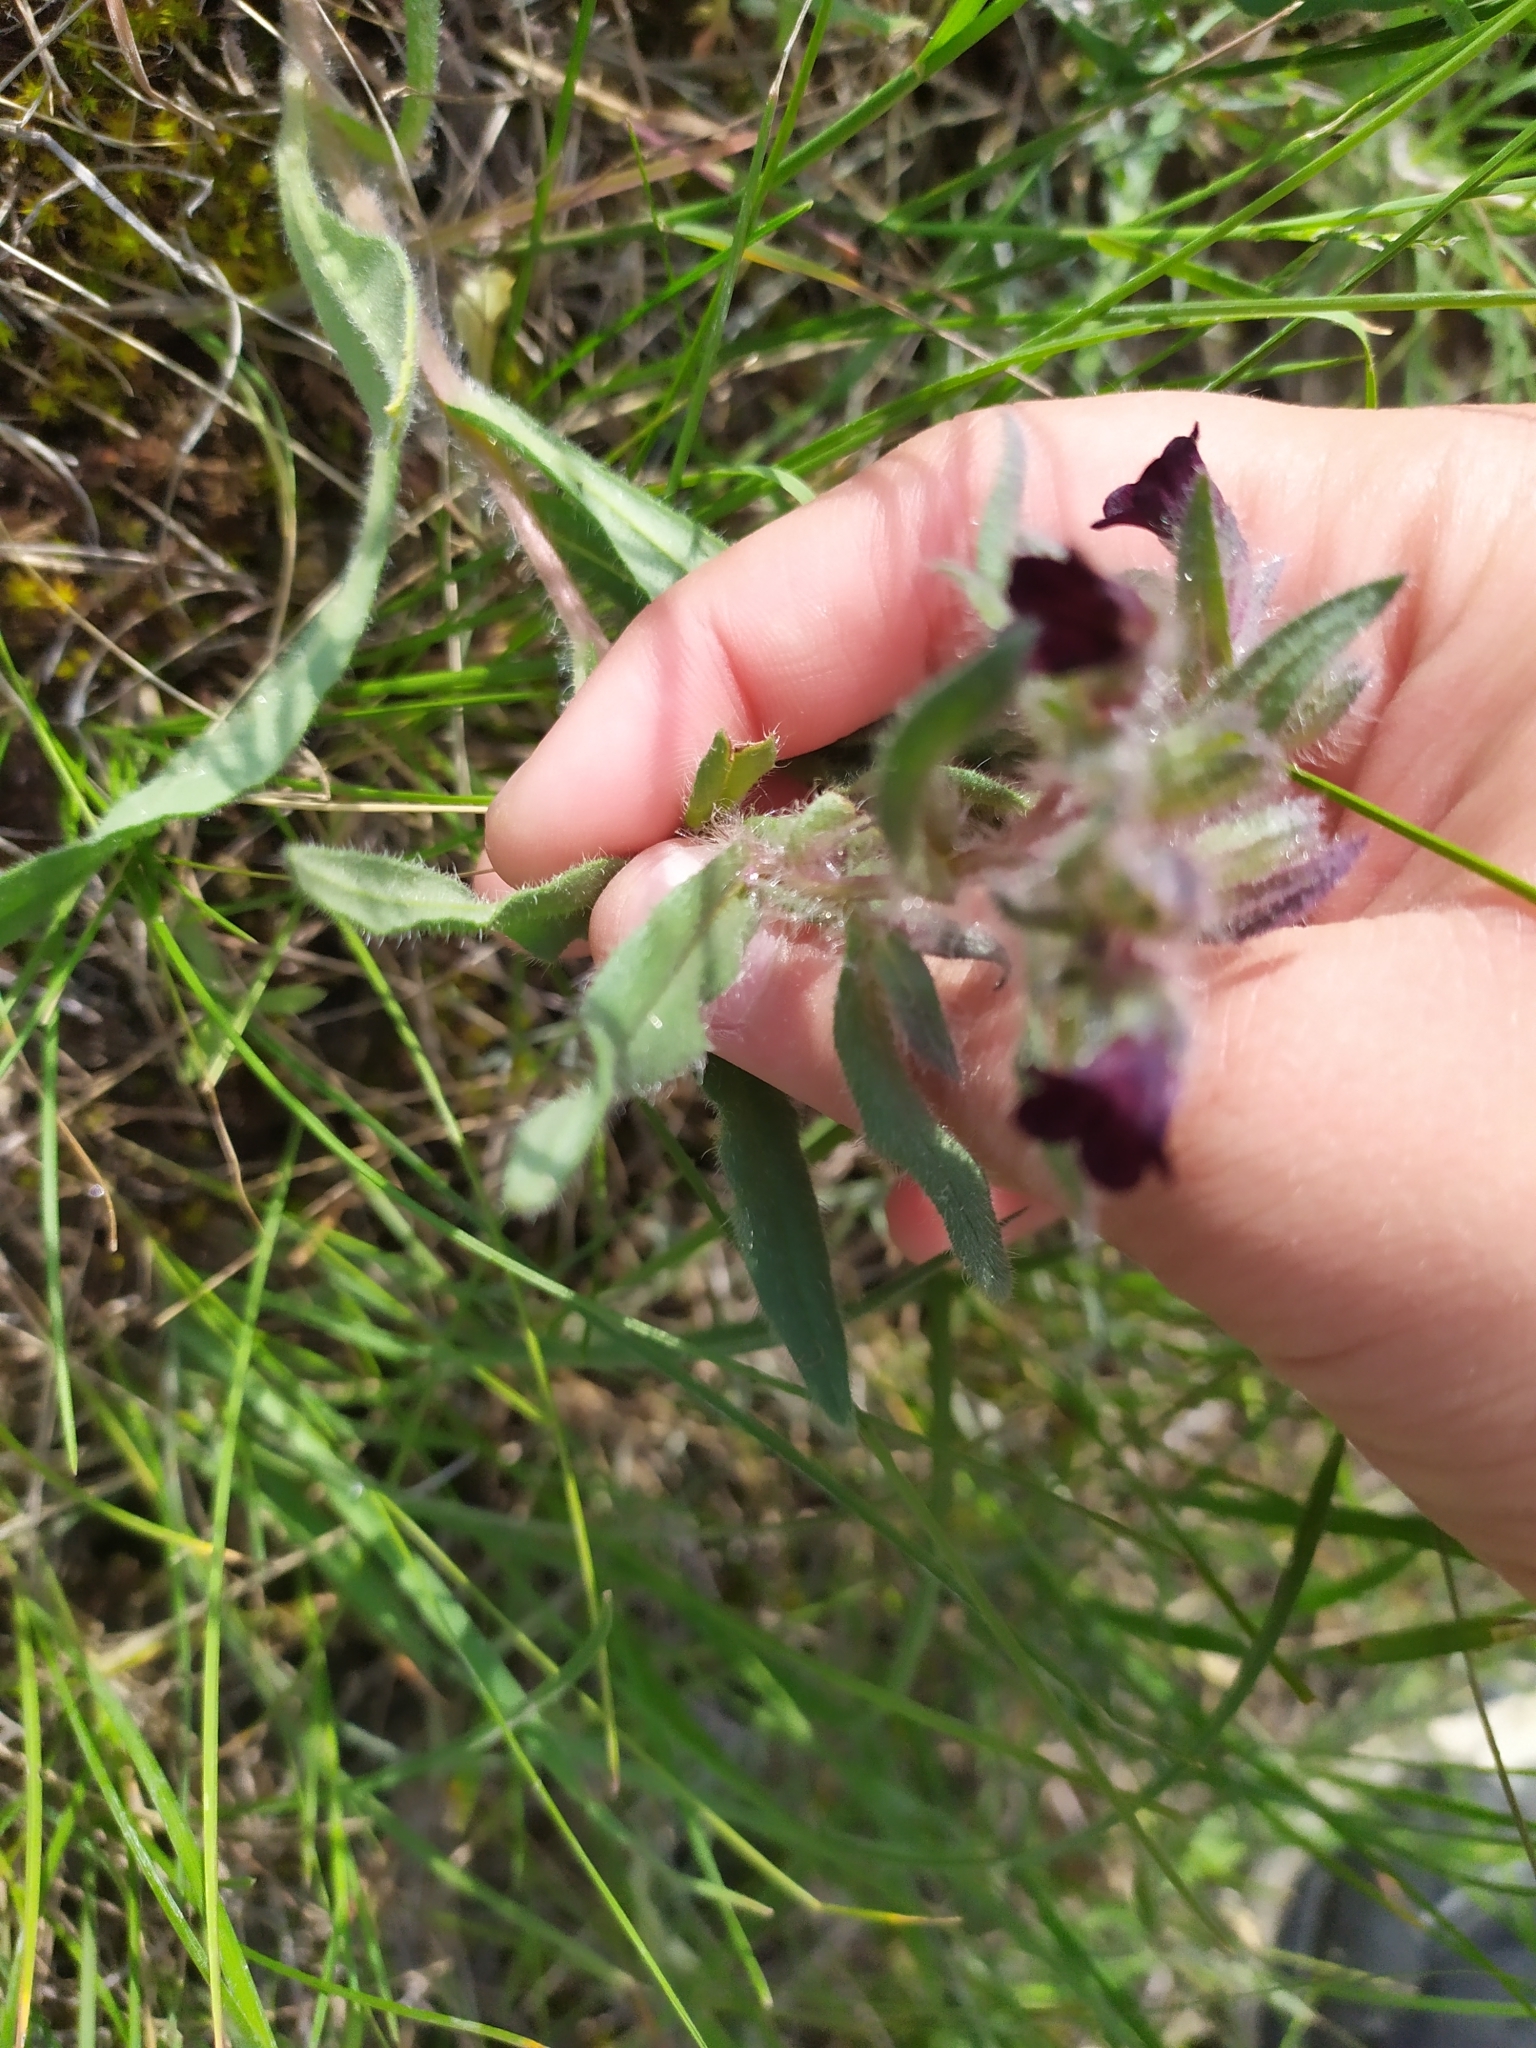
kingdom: Plantae
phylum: Tracheophyta
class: Magnoliopsida
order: Boraginales
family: Boraginaceae
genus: Nonea
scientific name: Nonea pulla
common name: Brown nonea
